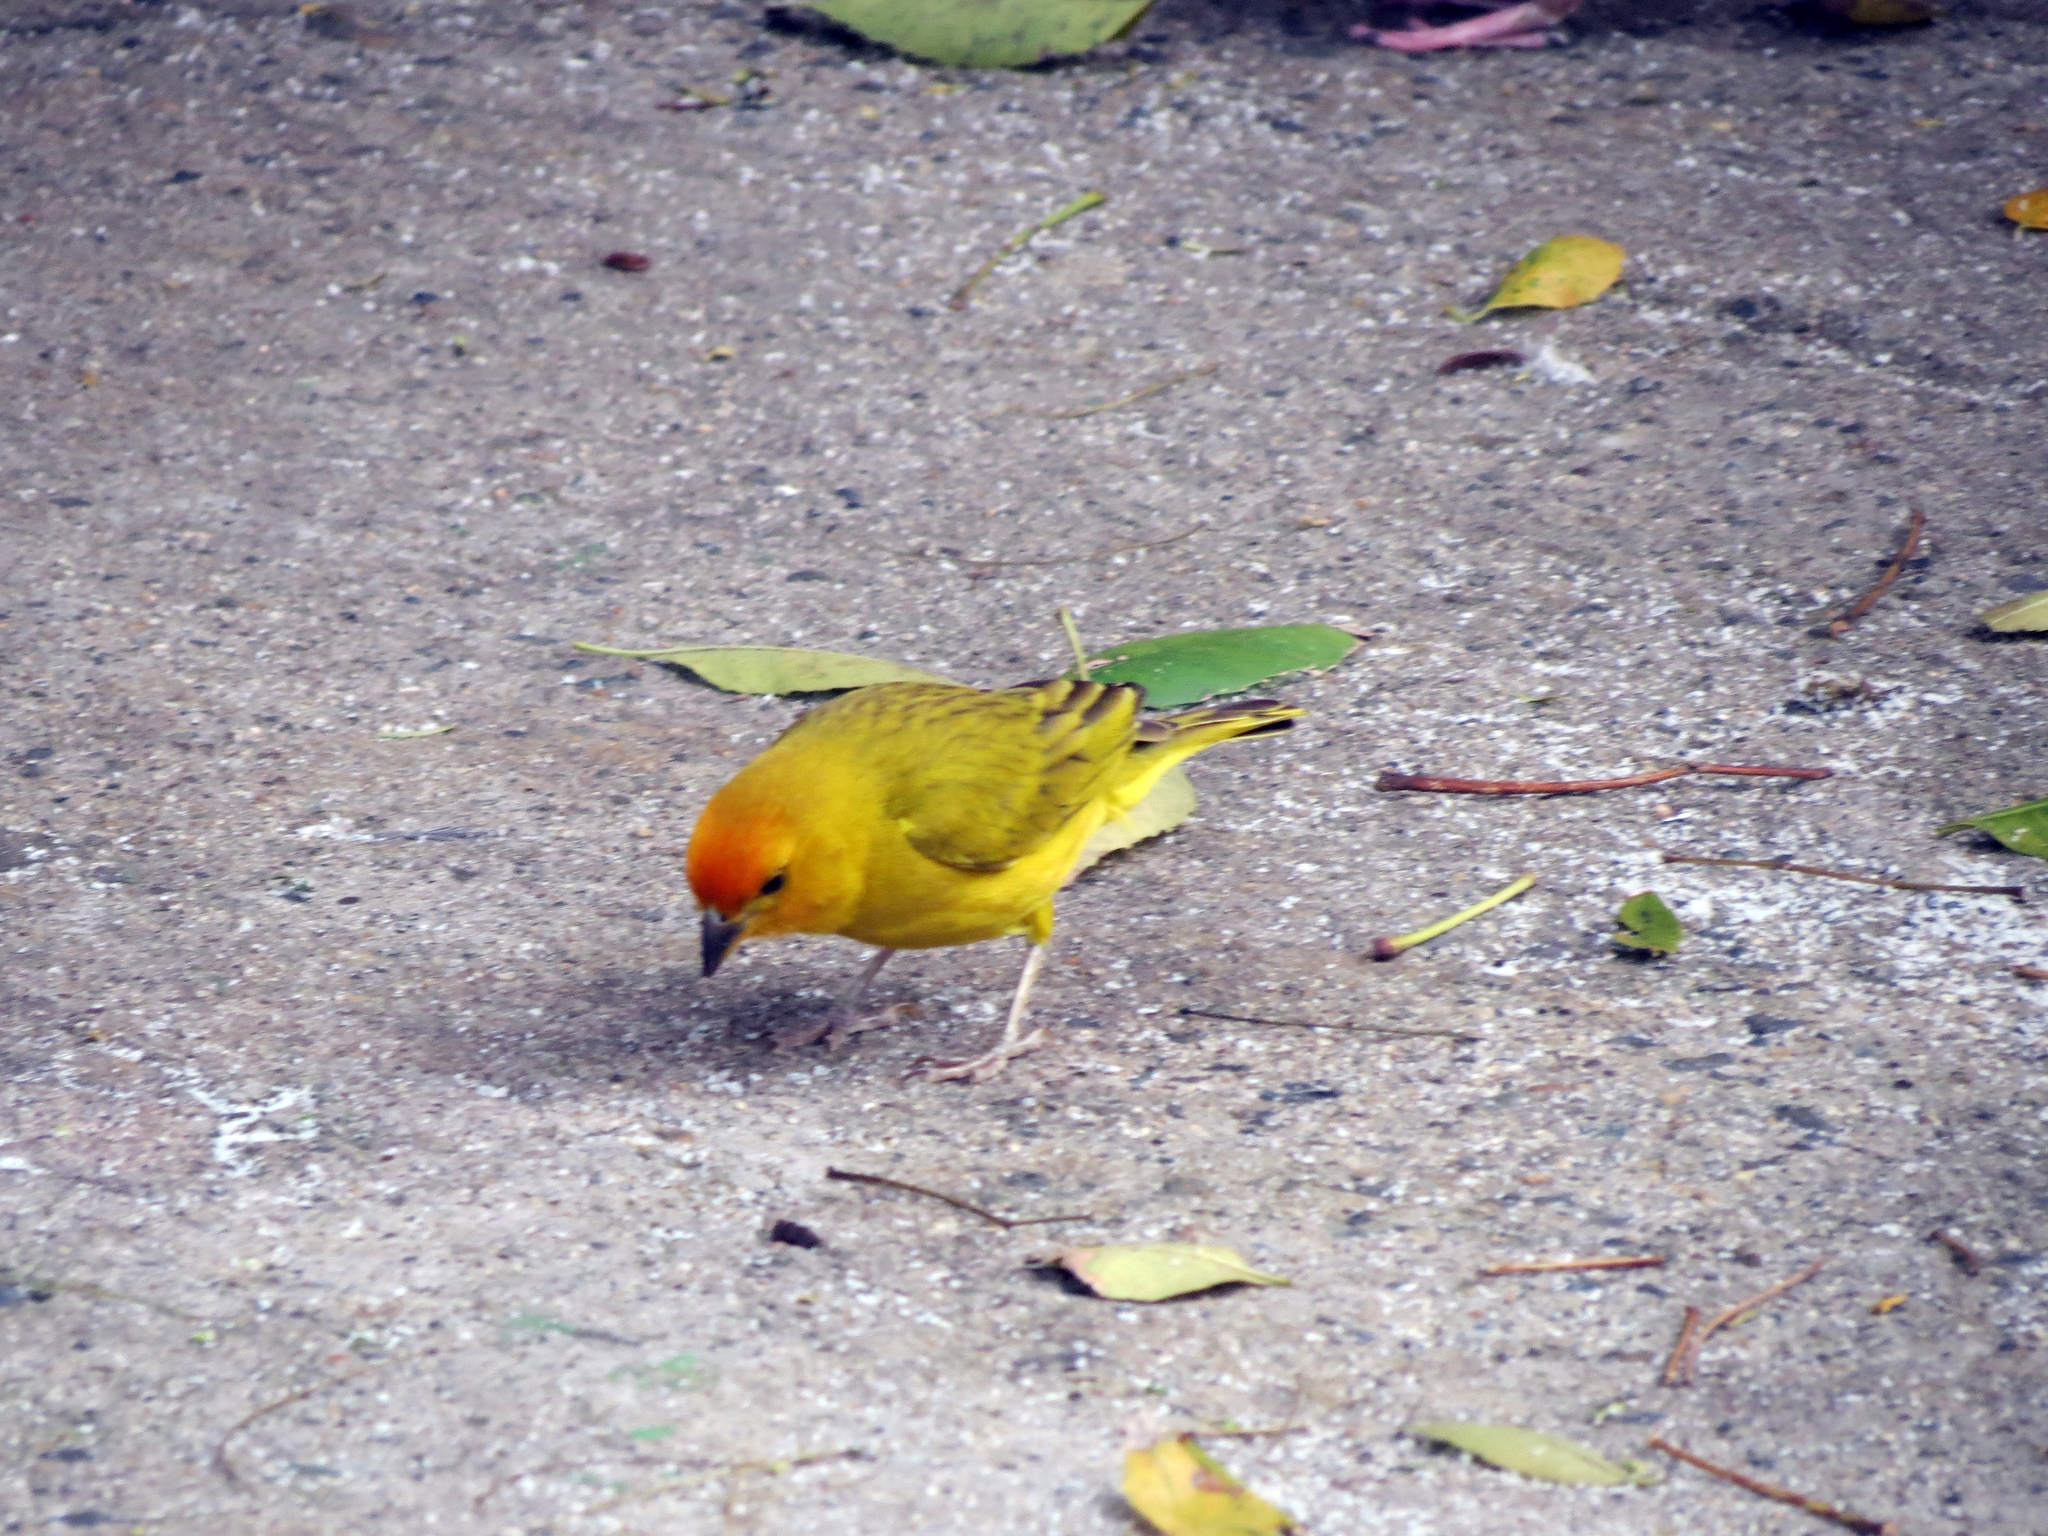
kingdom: Animalia
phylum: Chordata
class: Aves
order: Passeriformes
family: Thraupidae
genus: Sicalis
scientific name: Sicalis flaveola
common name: Saffron finch
